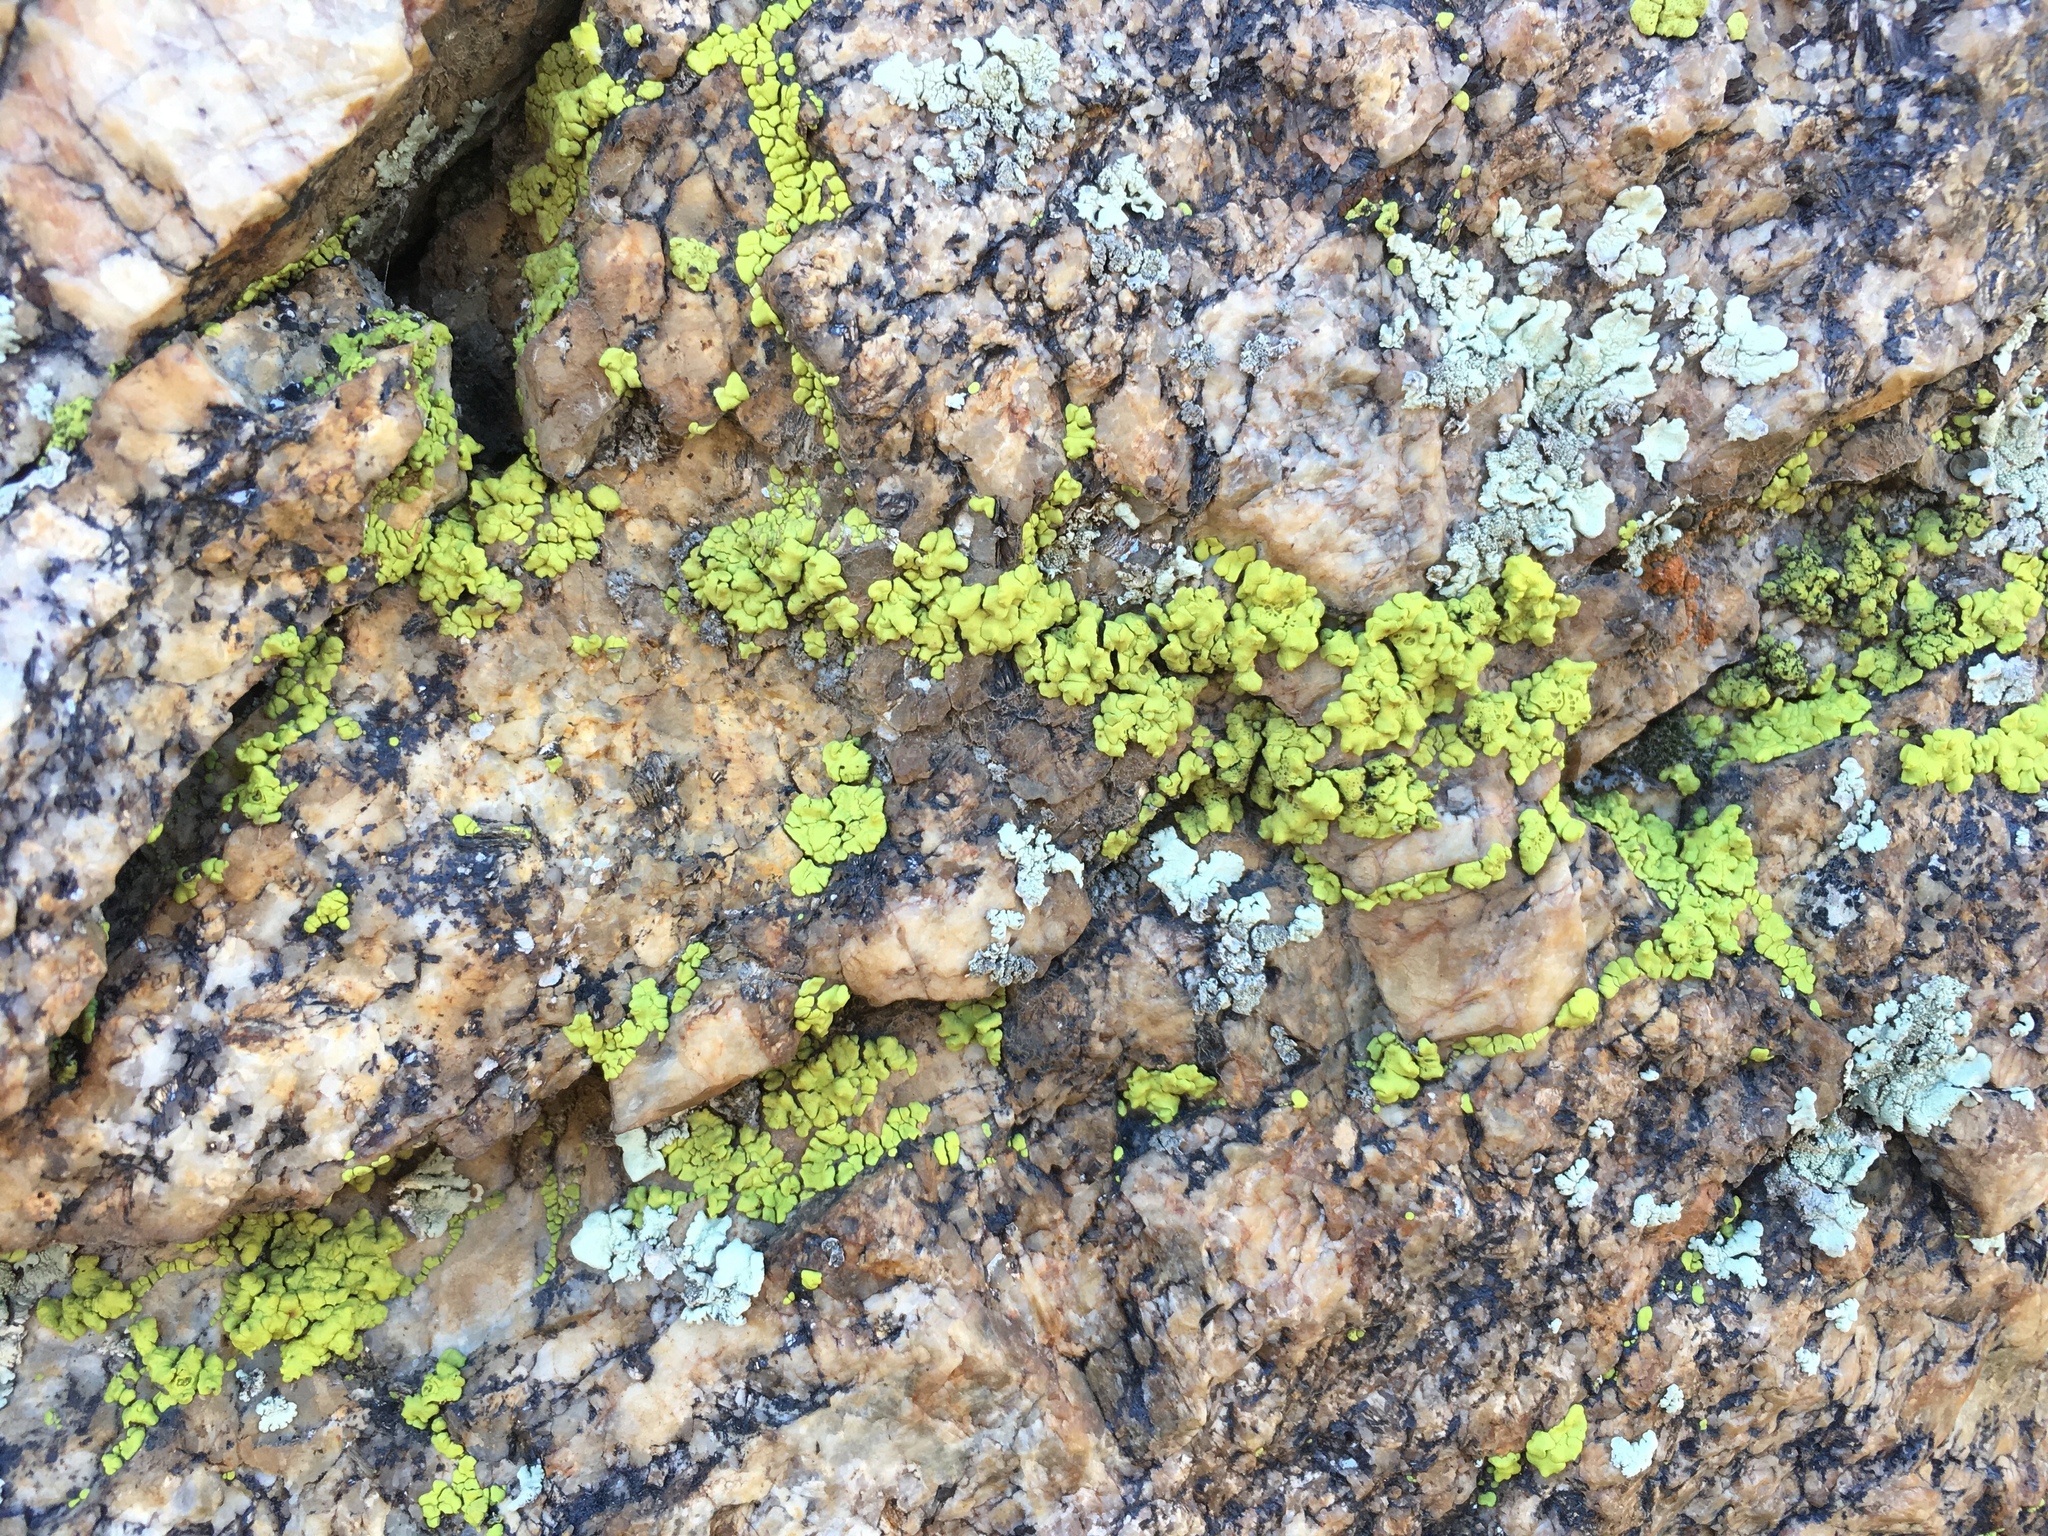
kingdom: Fungi
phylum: Ascomycota
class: Lecanoromycetes
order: Acarosporales
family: Acarosporaceae
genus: Acarospora
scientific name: Acarospora socialis
